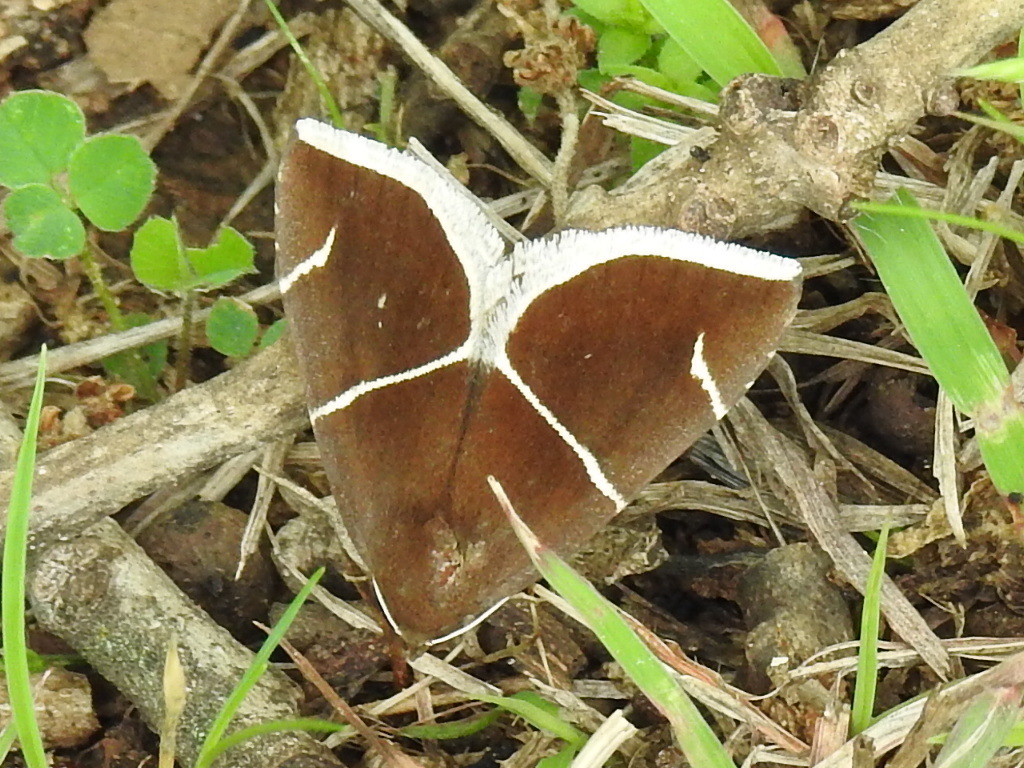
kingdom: Animalia
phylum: Arthropoda
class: Insecta
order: Lepidoptera
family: Erebidae
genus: Argyrostrotis
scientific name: Argyrostrotis anilis
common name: Short-lined chocolate
